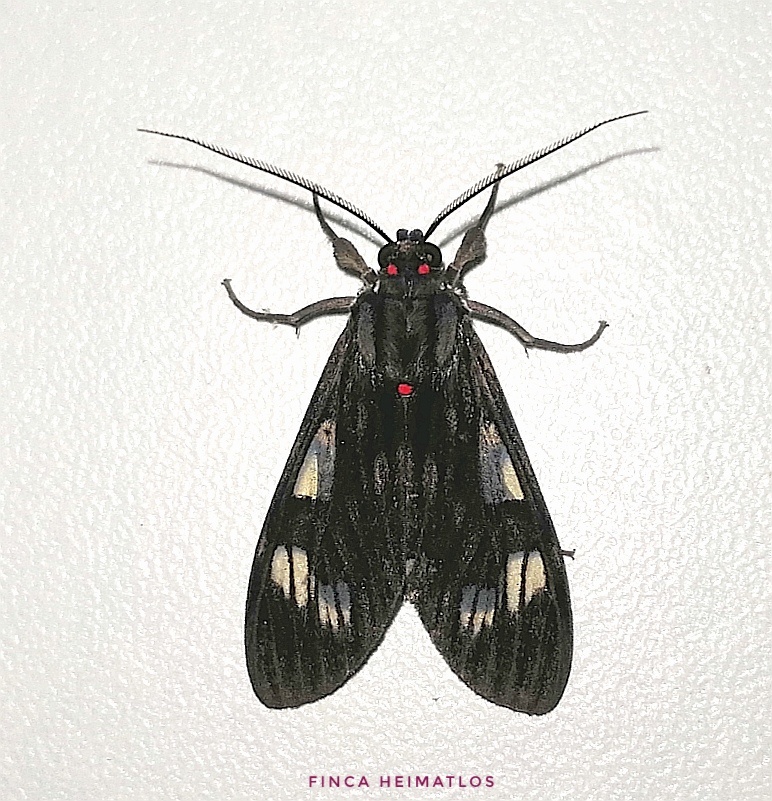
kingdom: Animalia
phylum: Arthropoda
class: Insecta
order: Lepidoptera
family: Erebidae
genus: Episcepsis
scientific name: Episcepsis
